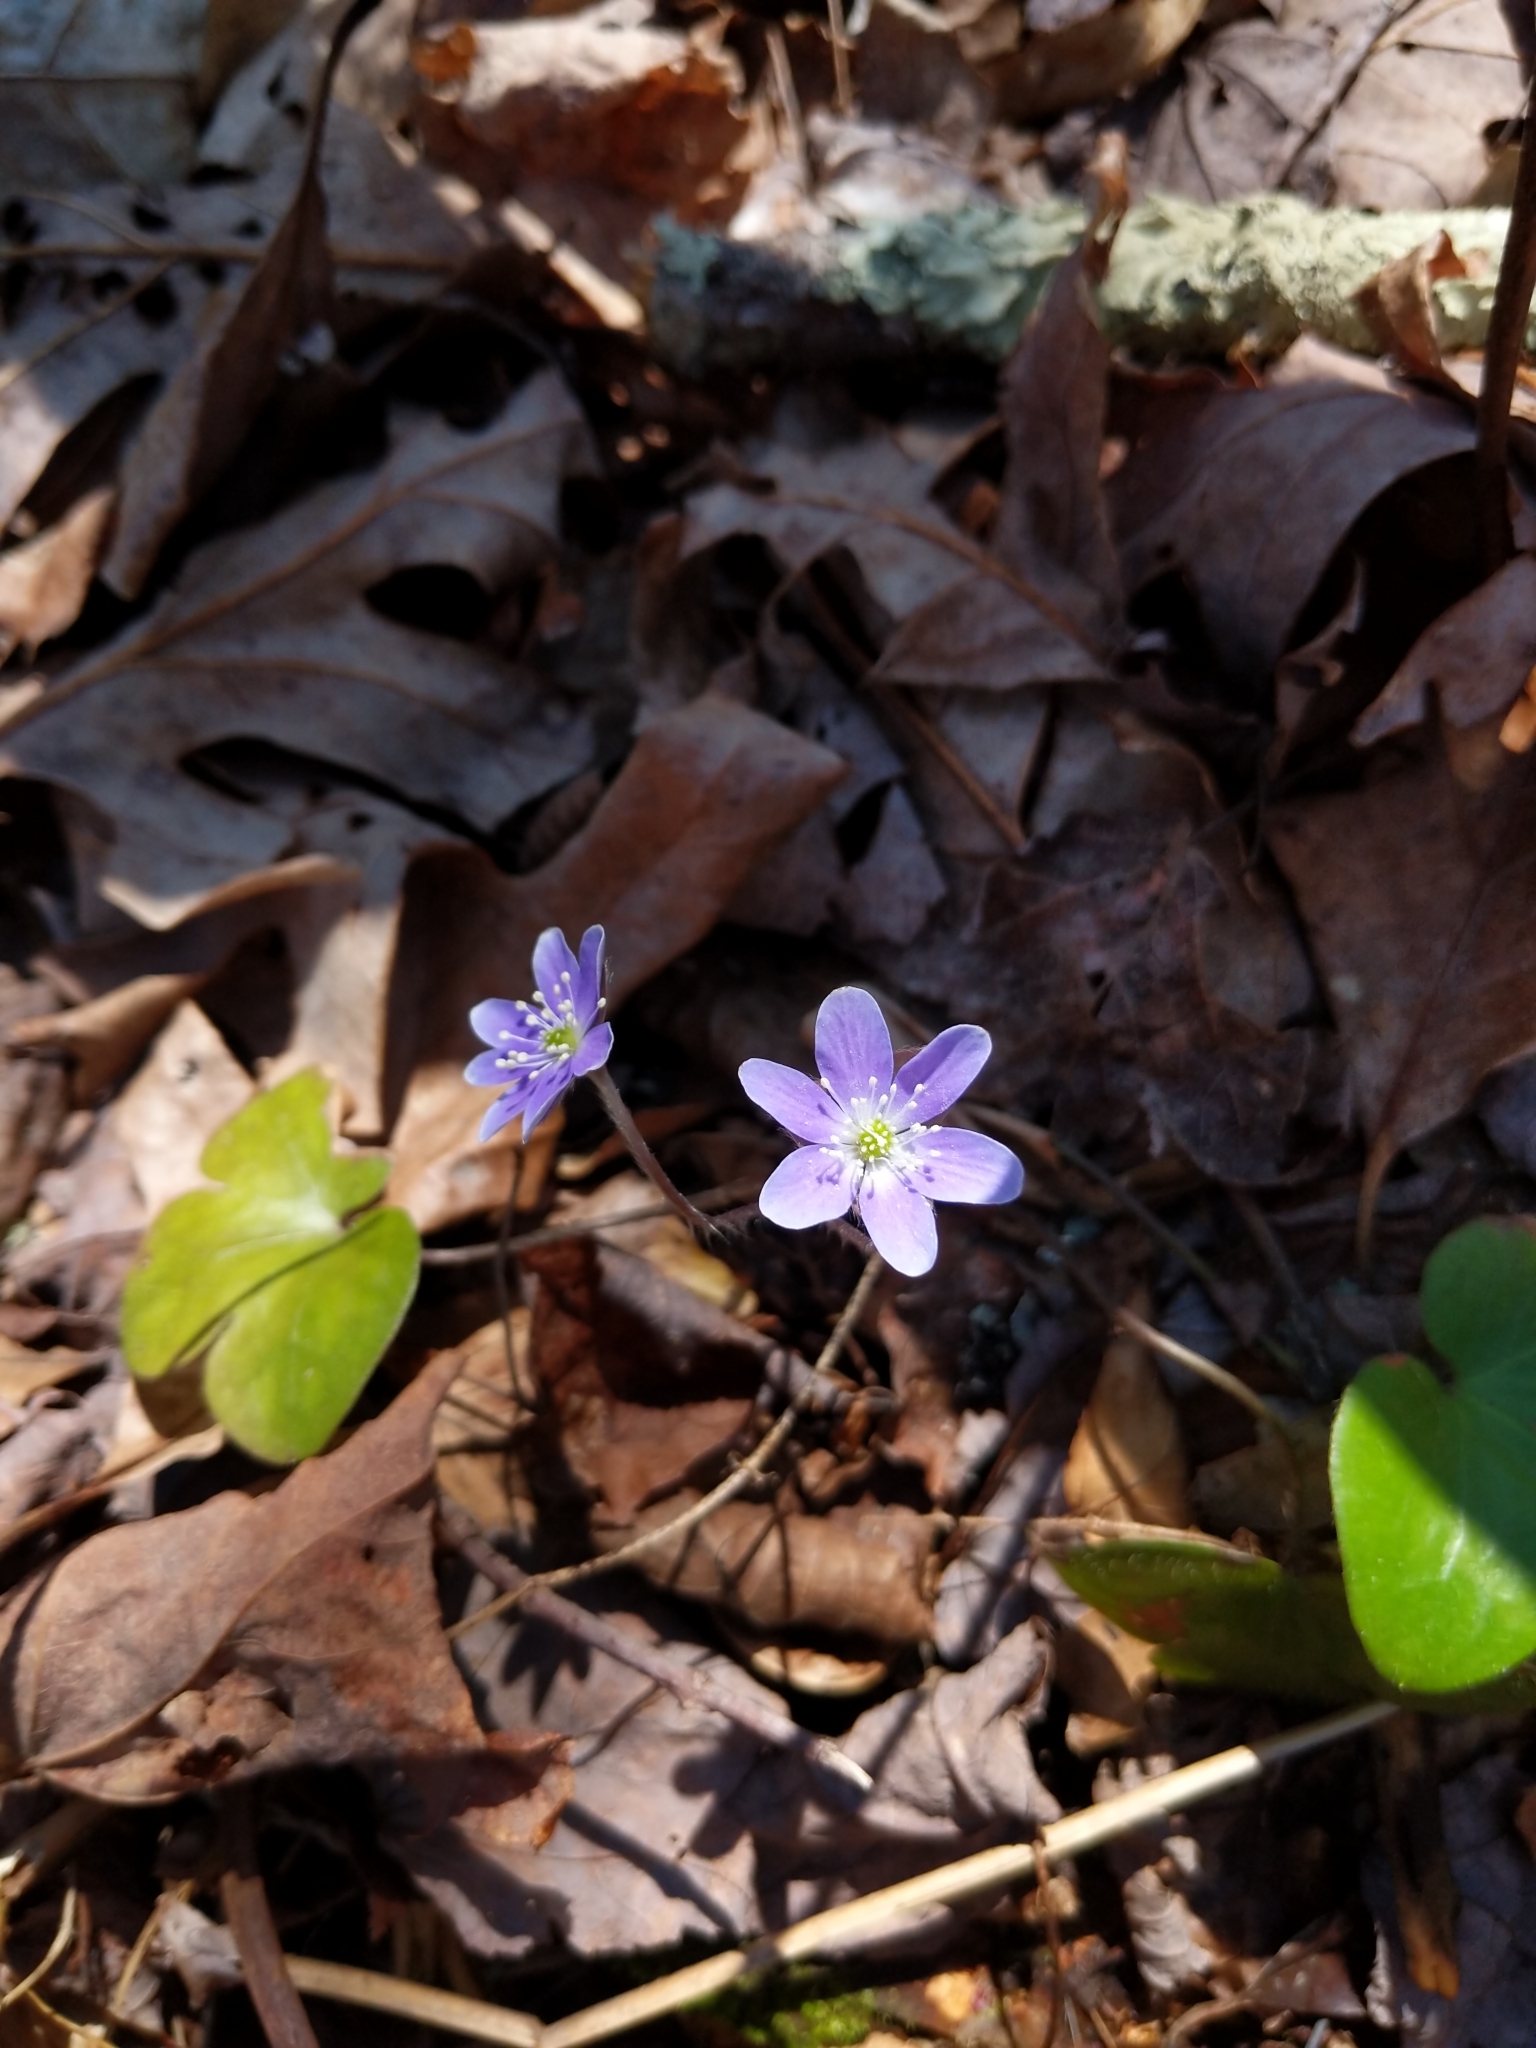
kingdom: Plantae
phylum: Tracheophyta
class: Magnoliopsida
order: Ranunculales
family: Ranunculaceae
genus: Hepatica
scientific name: Hepatica americana
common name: American hepatica
